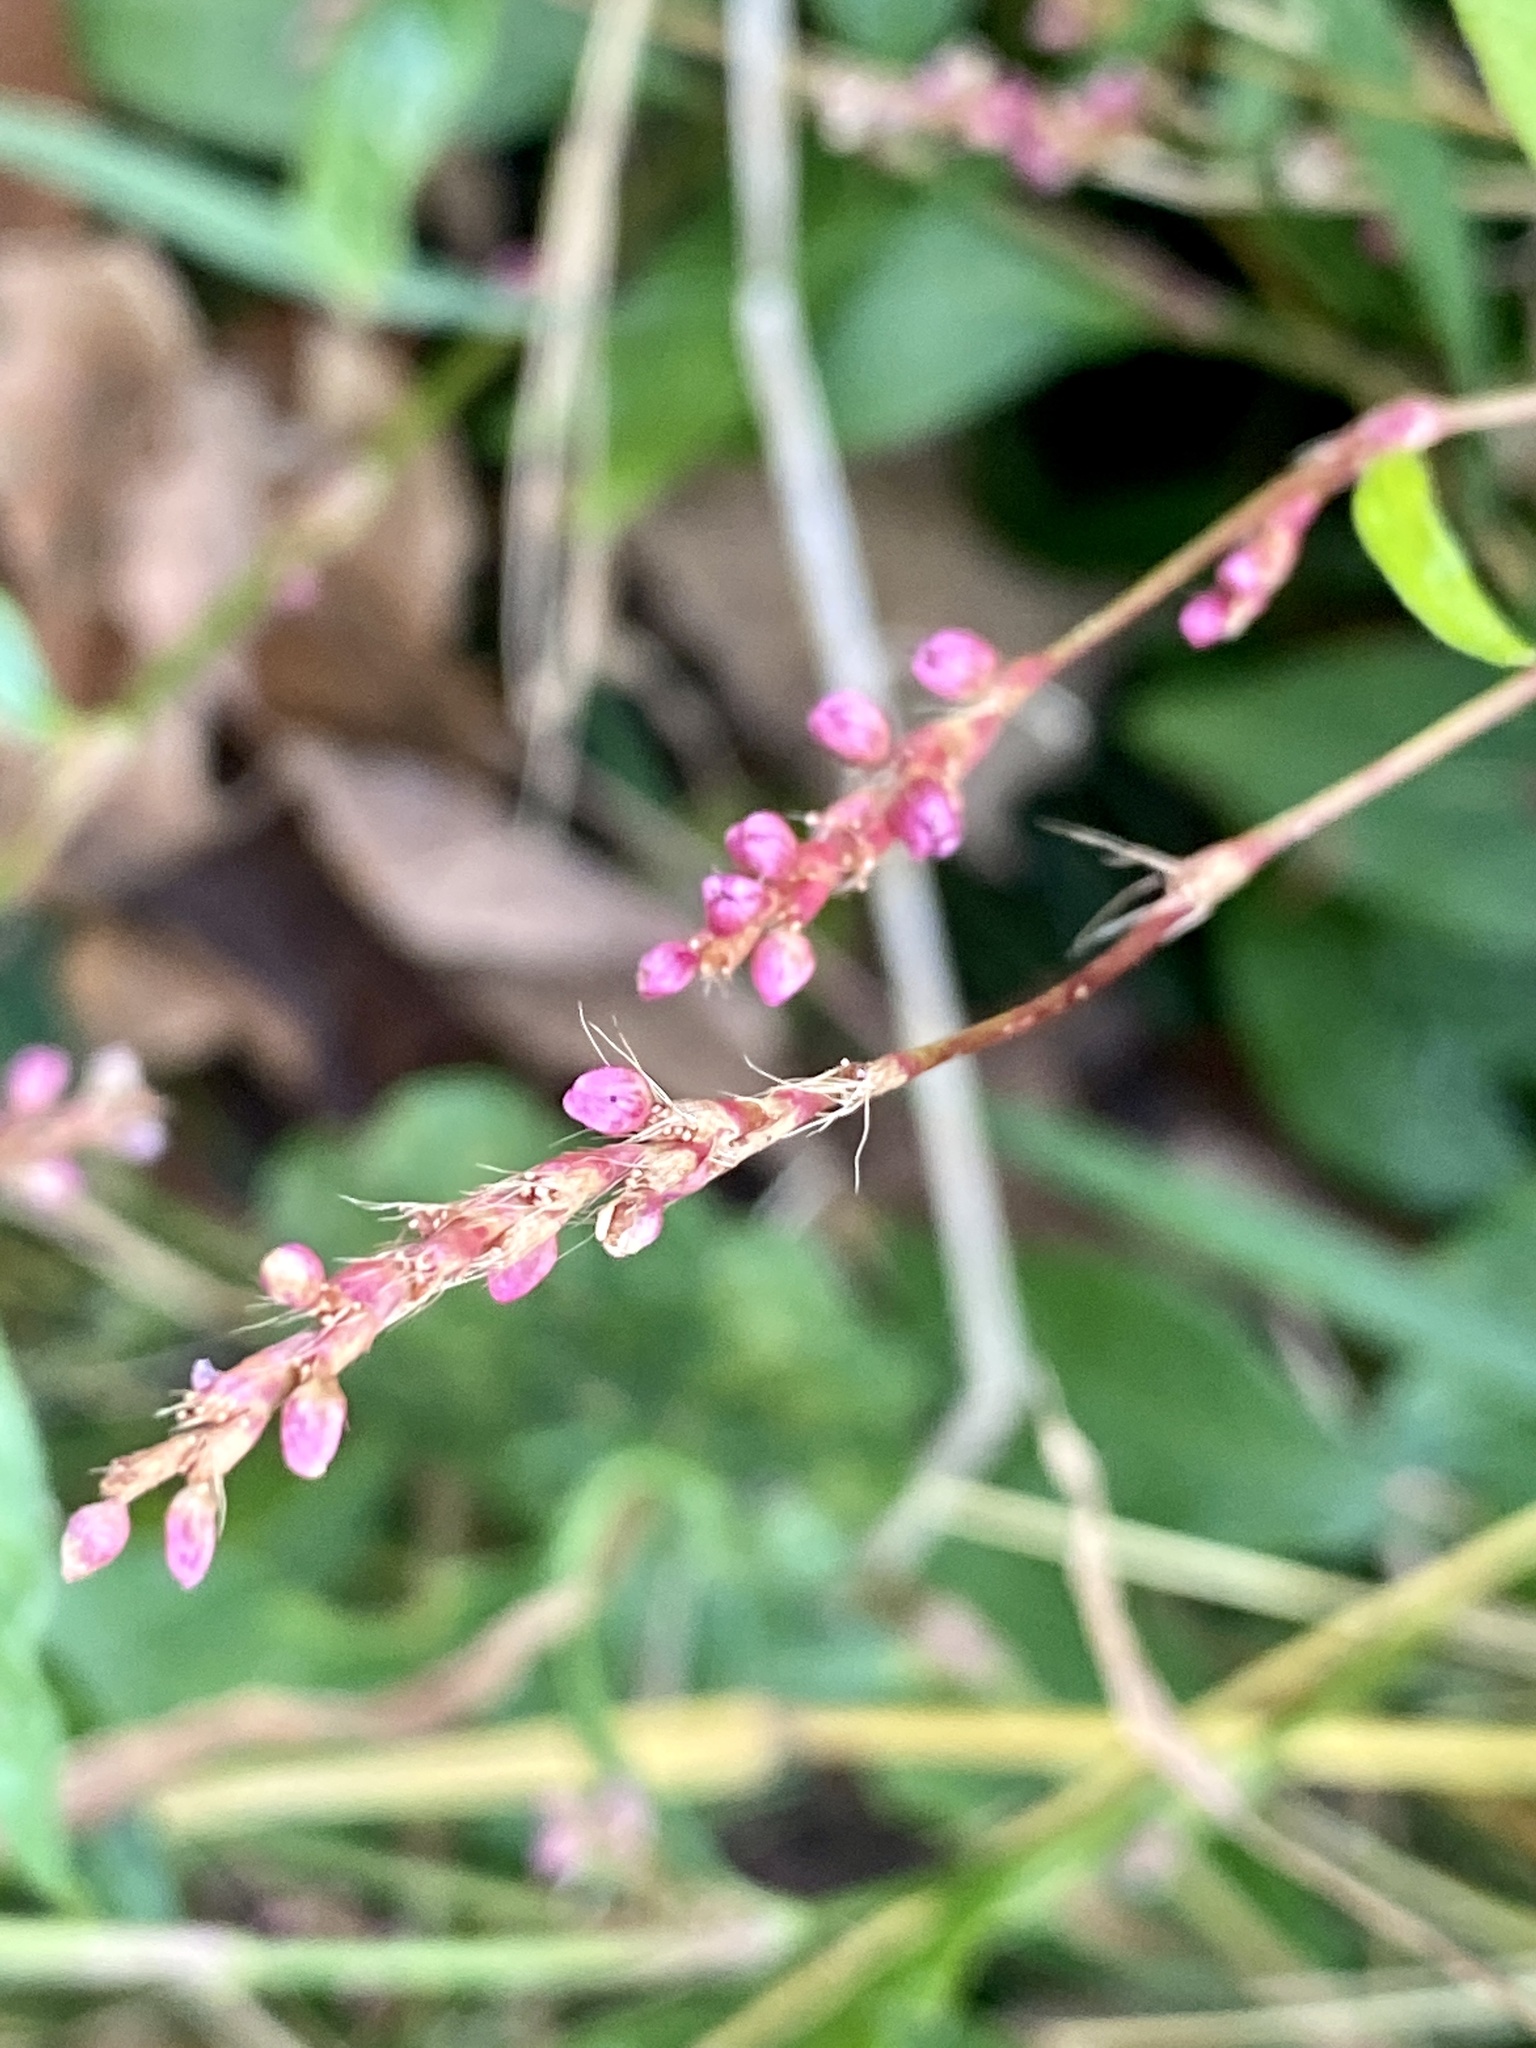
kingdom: Plantae
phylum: Tracheophyta
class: Magnoliopsida
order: Caryophyllales
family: Polygonaceae
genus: Persicaria
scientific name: Persicaria longiseta
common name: Bristly lady's-thumb
